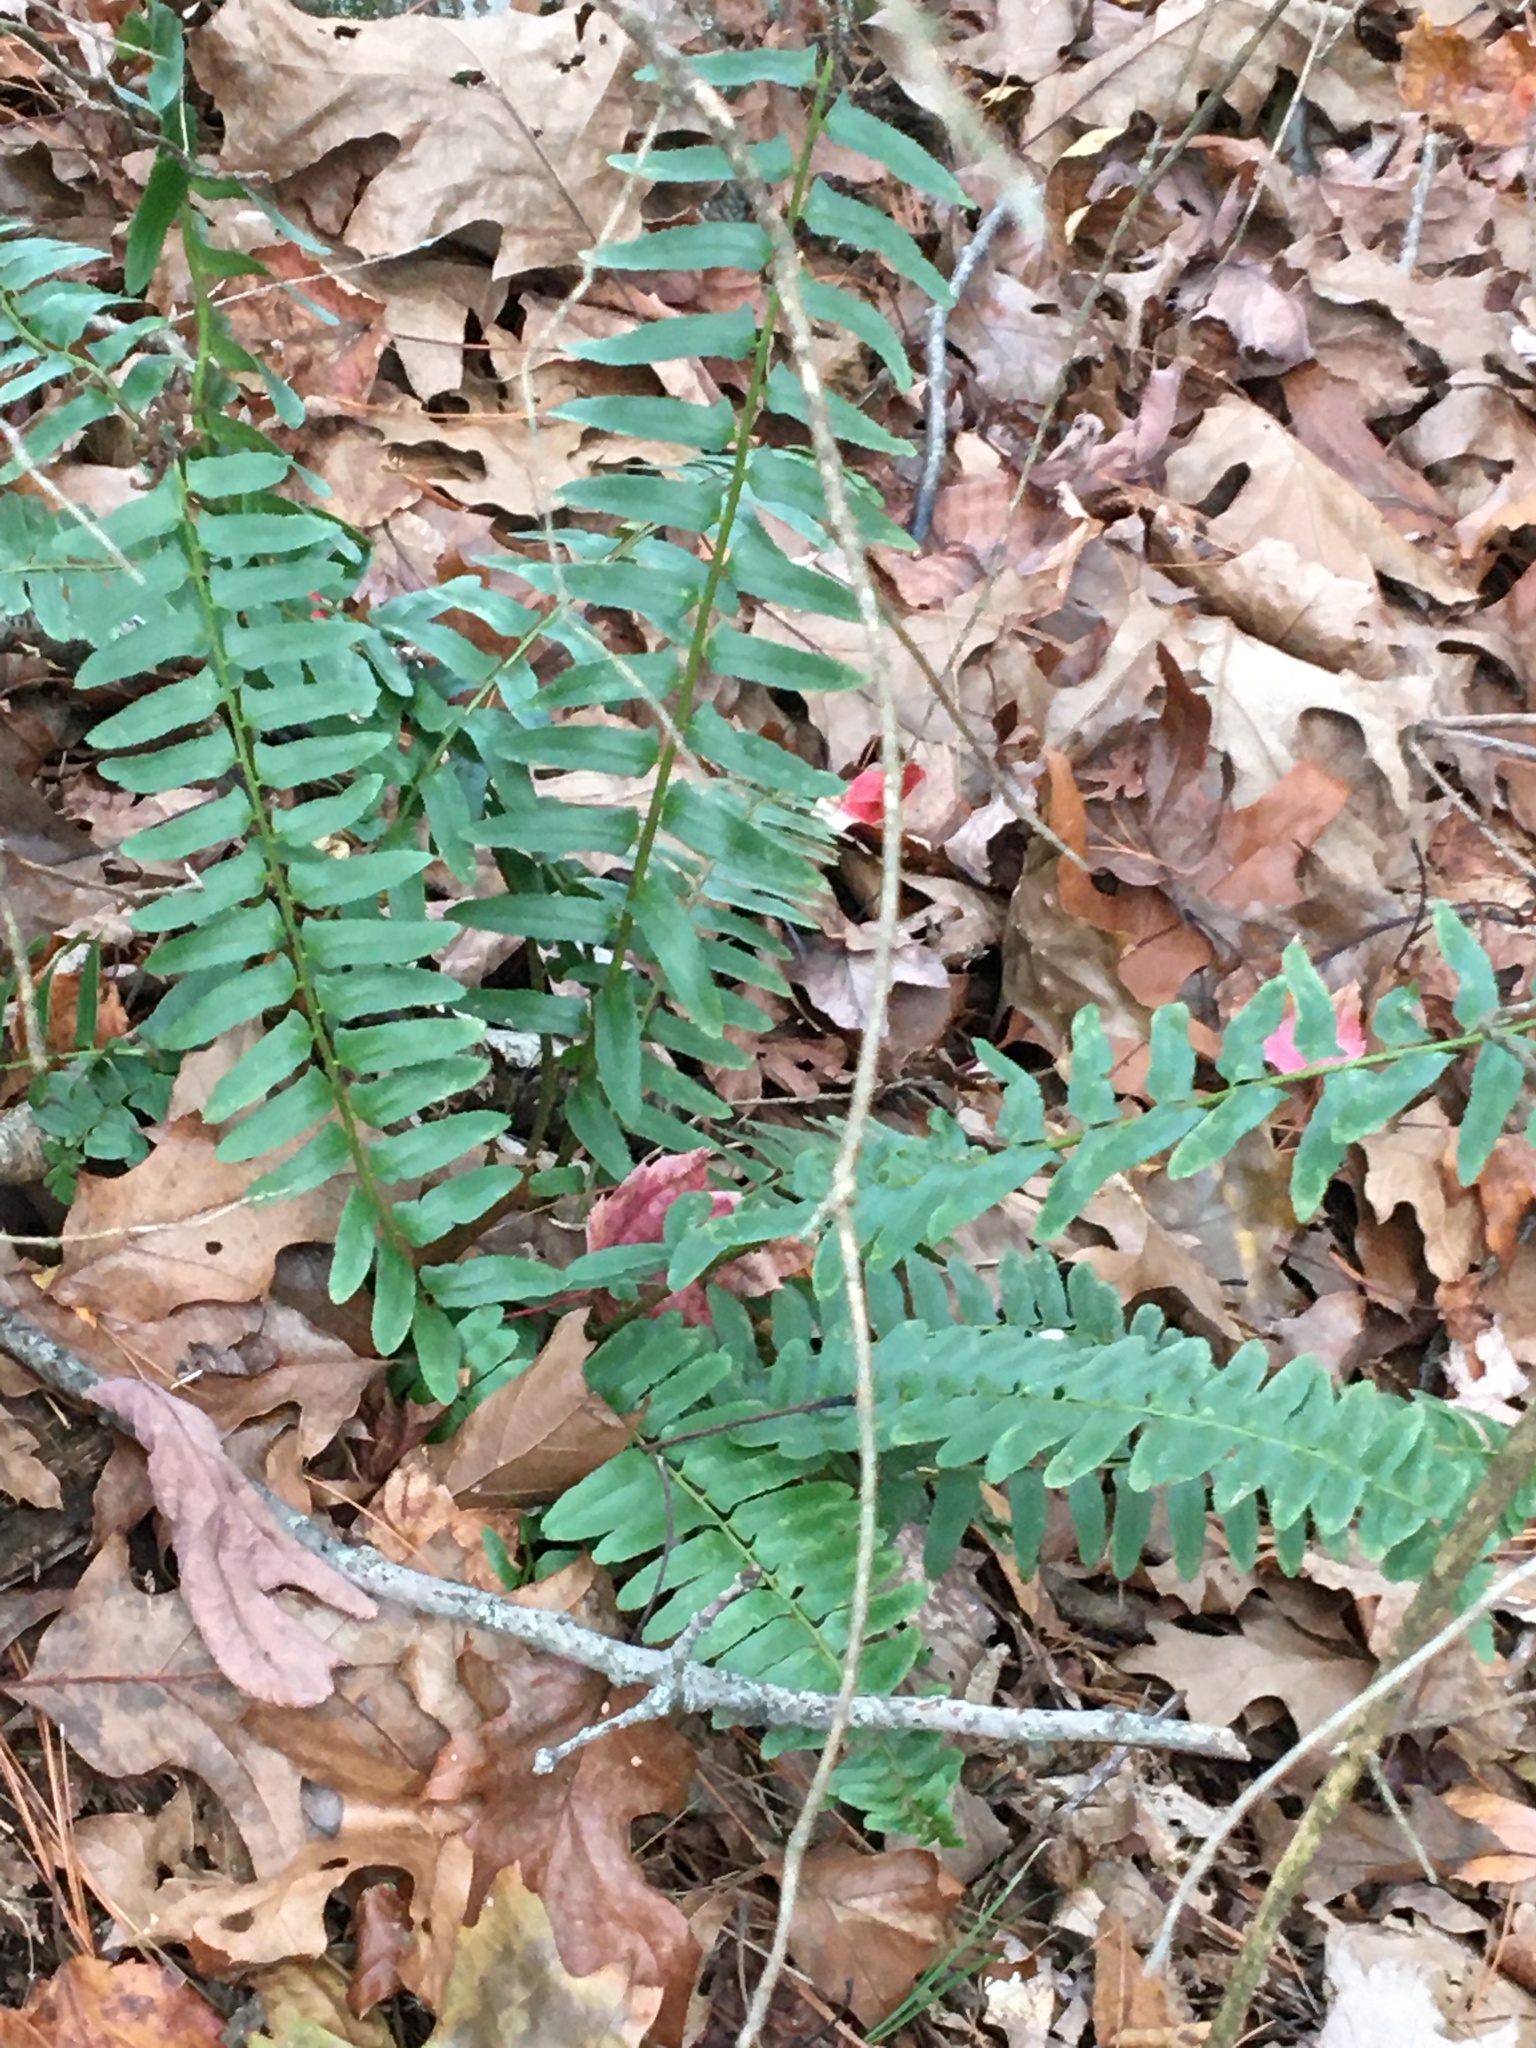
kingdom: Plantae
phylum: Tracheophyta
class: Polypodiopsida
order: Polypodiales
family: Dryopteridaceae
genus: Polystichum
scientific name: Polystichum acrostichoides
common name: Christmas fern
